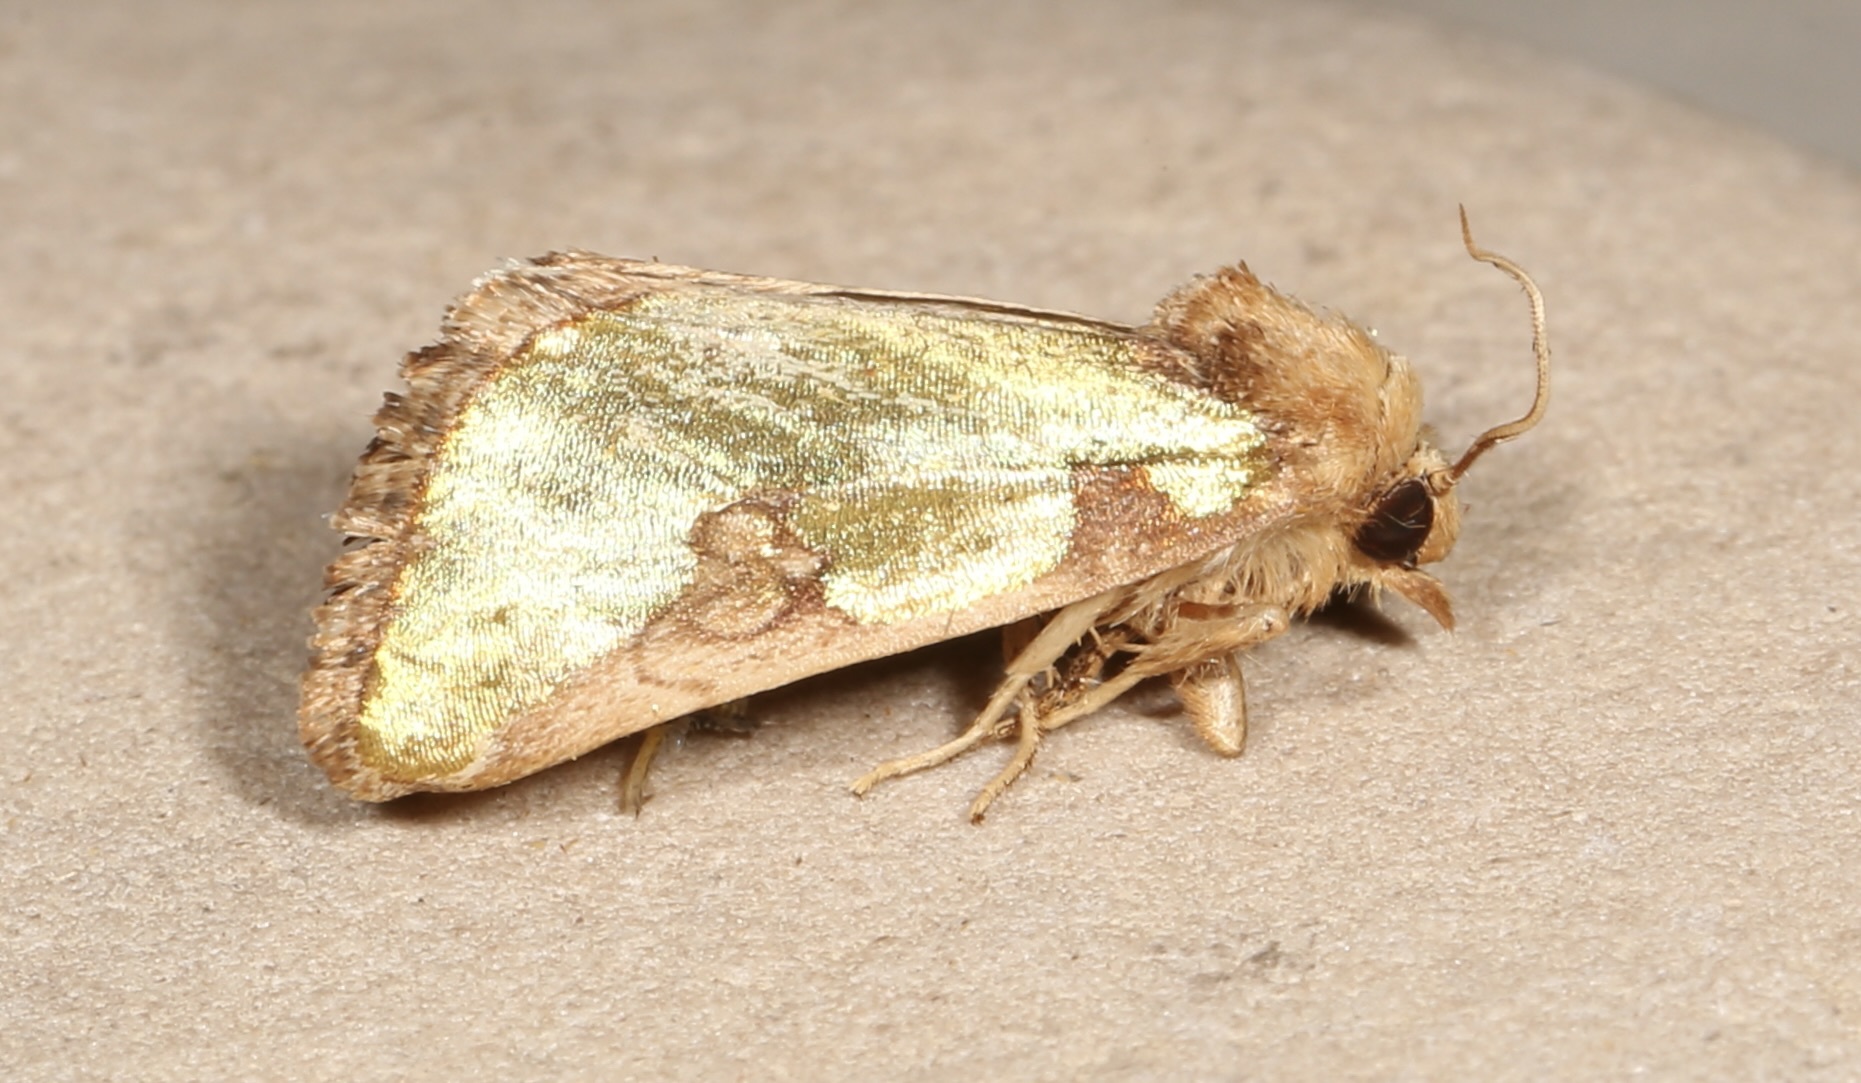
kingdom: Animalia
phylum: Arthropoda
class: Insecta
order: Lepidoptera
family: Noctuidae
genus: Chalcopasta
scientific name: Chalcopasta territans
